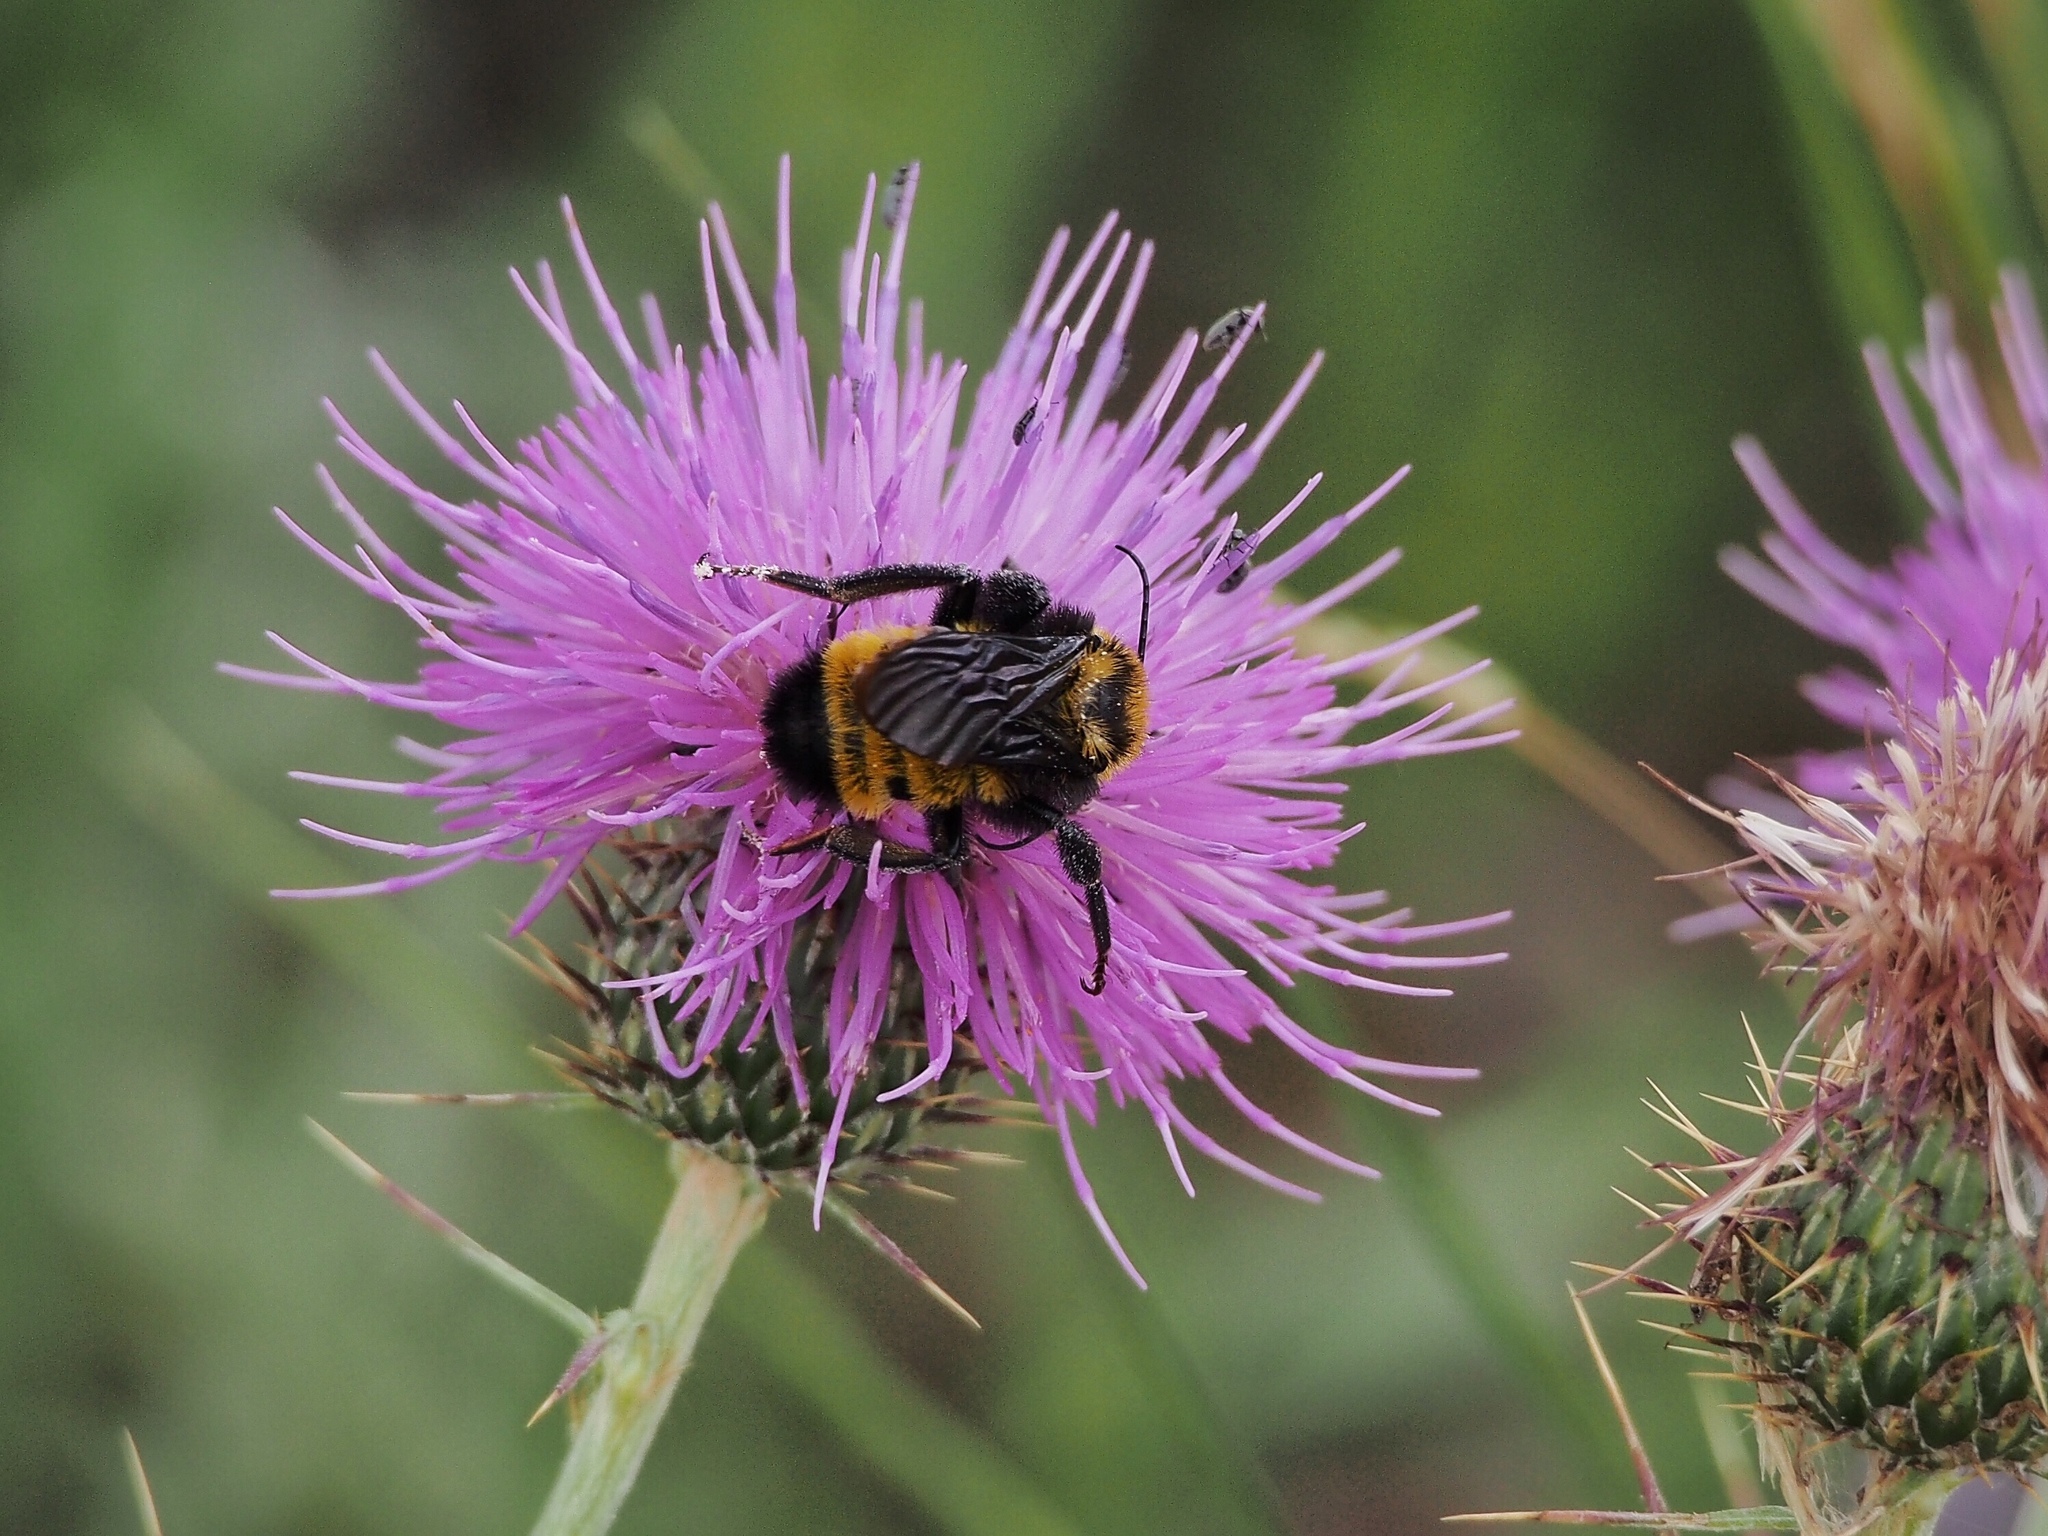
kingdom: Animalia
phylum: Arthropoda
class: Insecta
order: Hymenoptera
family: Apidae
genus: Bombus
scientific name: Bombus sonorus
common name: Sonoran bumble bee
